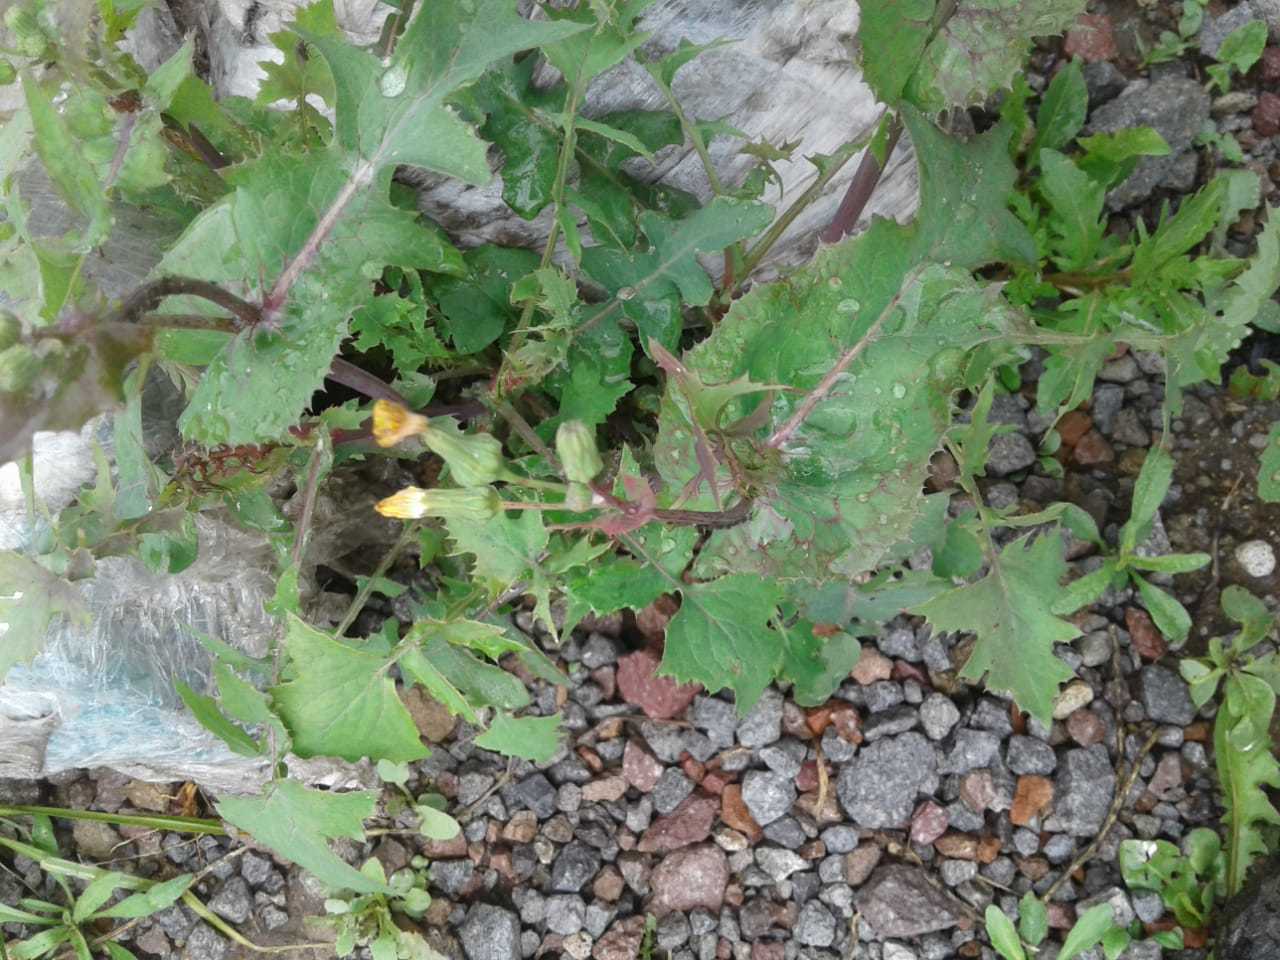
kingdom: Plantae
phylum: Tracheophyta
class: Magnoliopsida
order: Asterales
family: Asteraceae
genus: Sonchus
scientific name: Sonchus oleraceus
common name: Common sowthistle
